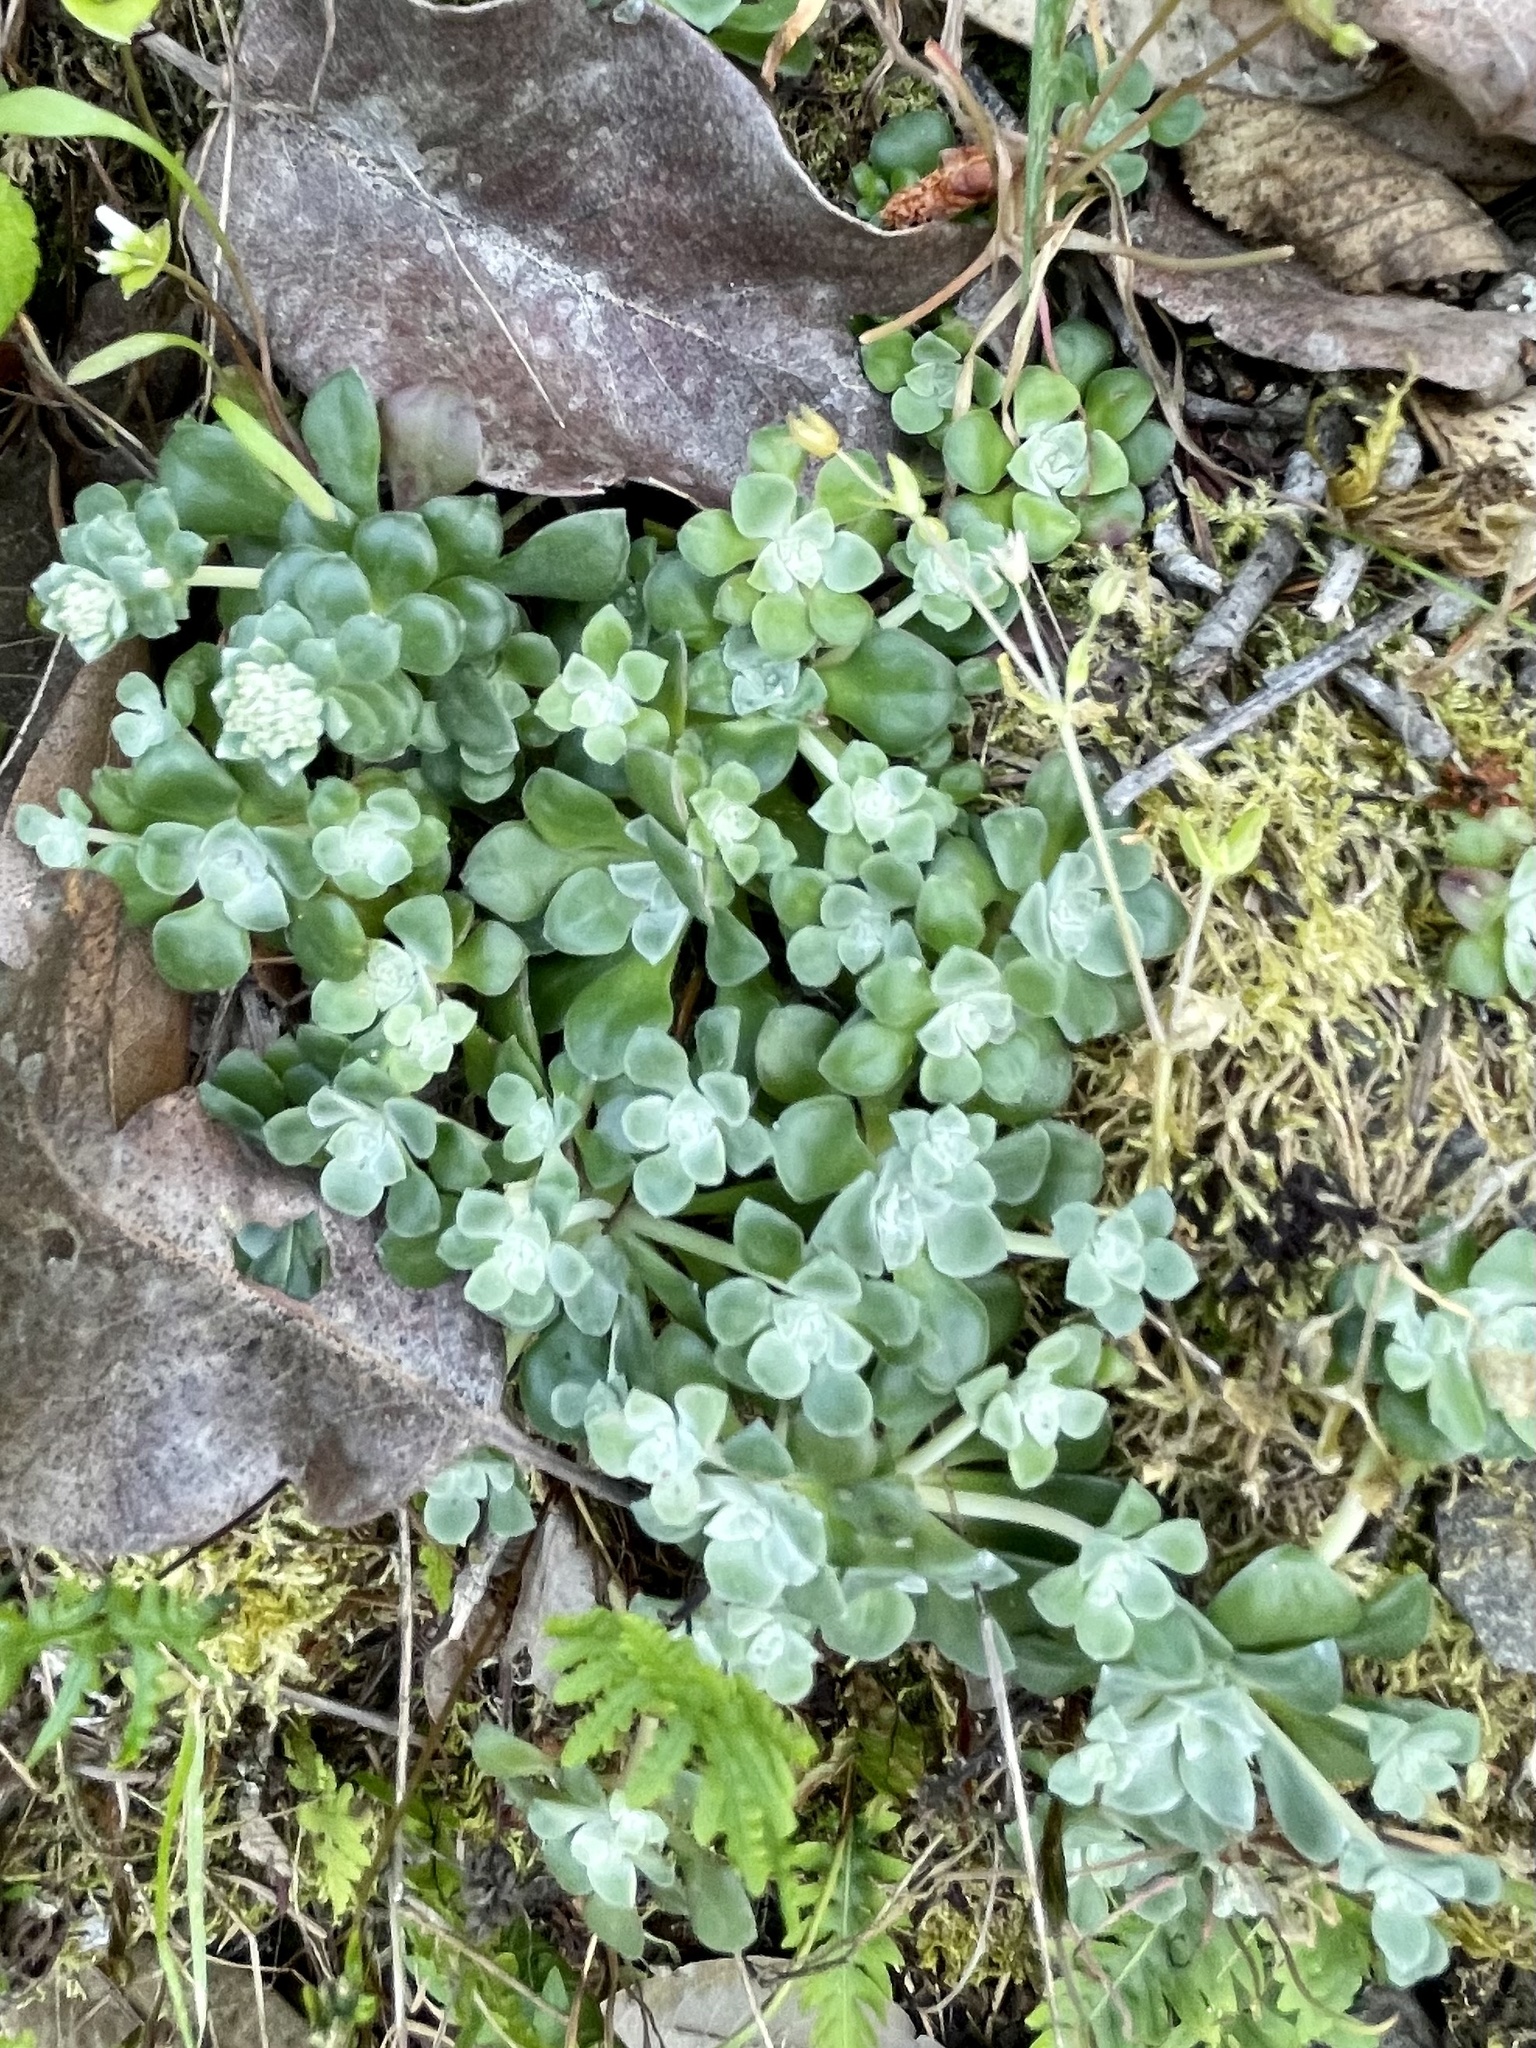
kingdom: Plantae
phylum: Tracheophyta
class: Magnoliopsida
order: Saxifragales
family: Crassulaceae
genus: Sedum
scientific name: Sedum spathulifolium
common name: Colorado stonecrop
